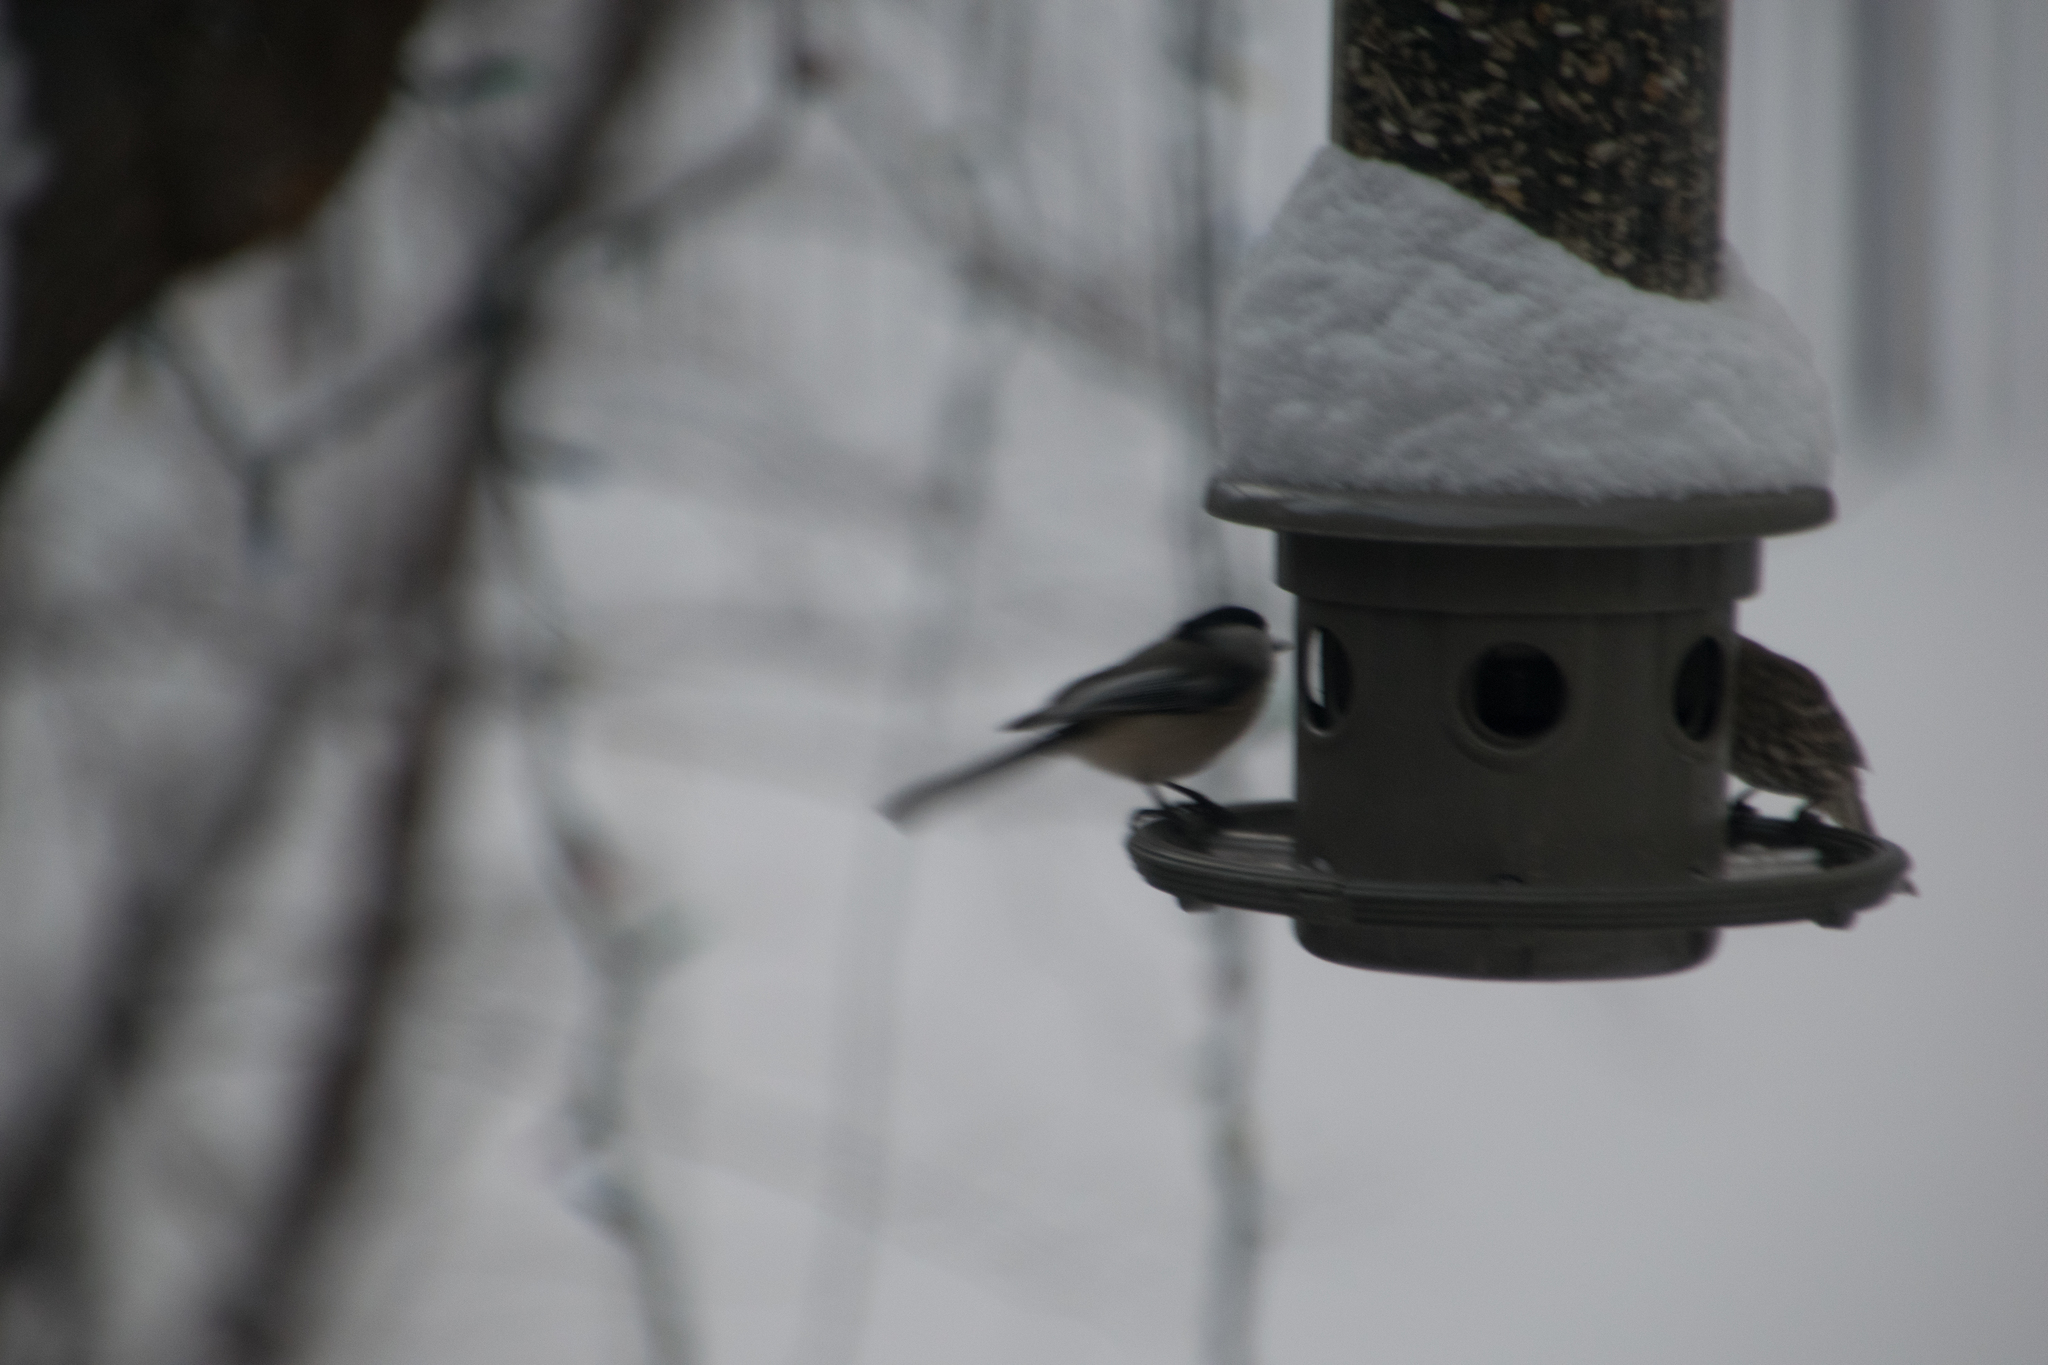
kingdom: Animalia
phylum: Chordata
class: Aves
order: Passeriformes
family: Paridae
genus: Poecile
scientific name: Poecile atricapillus
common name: Black-capped chickadee
